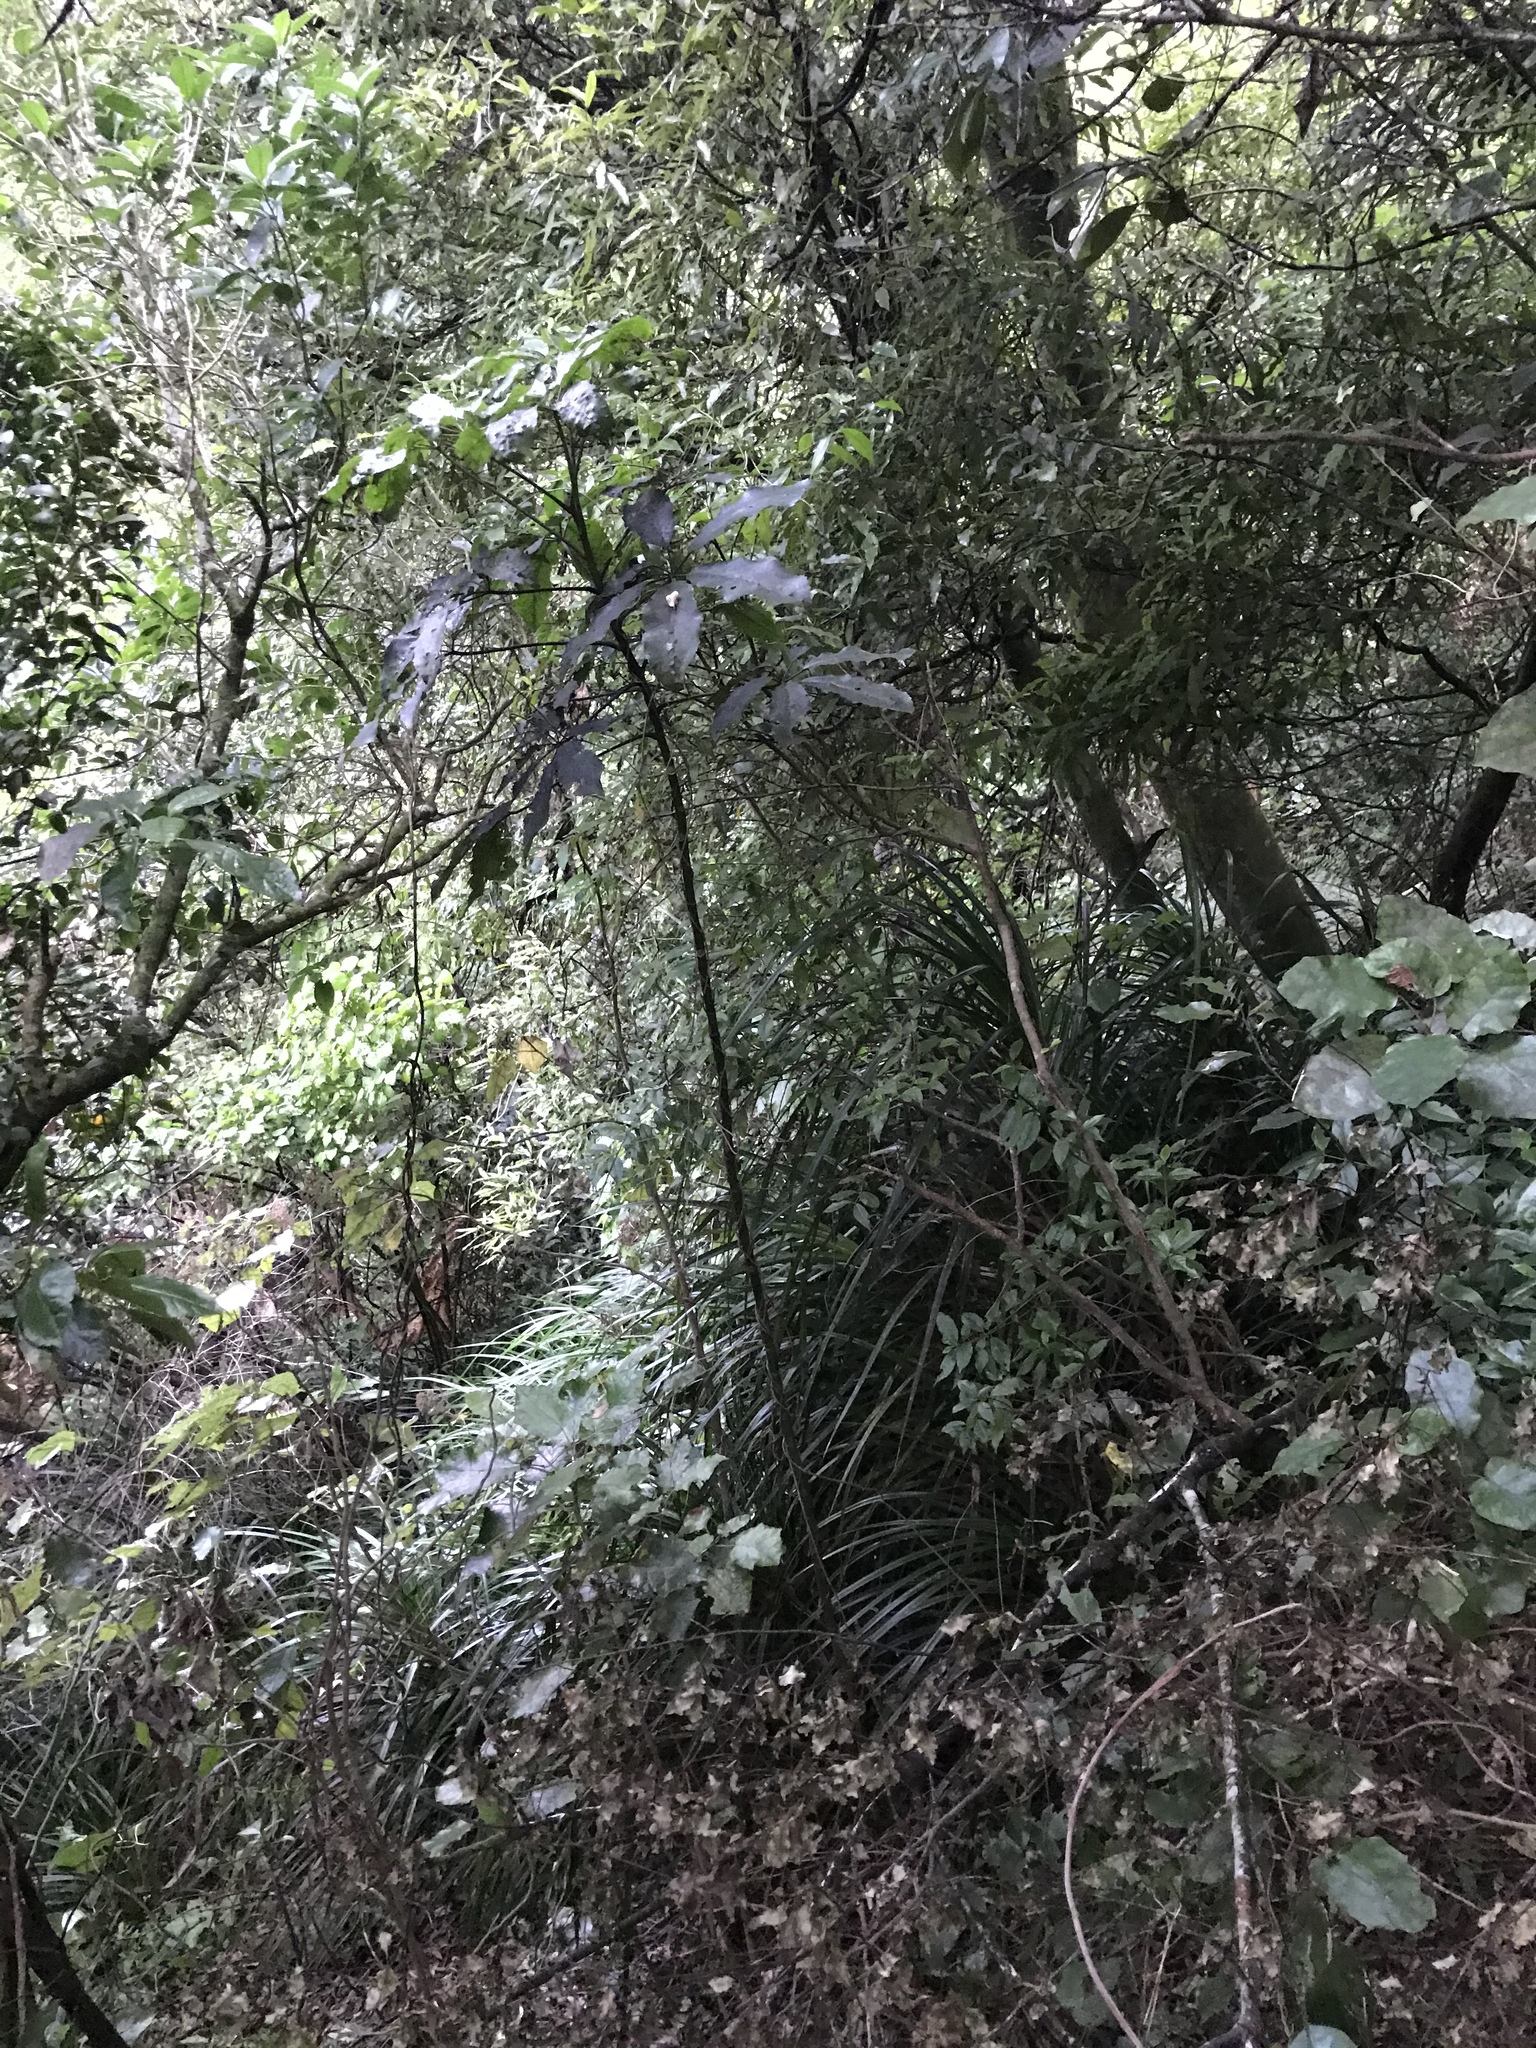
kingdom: Plantae
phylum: Tracheophyta
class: Liliopsida
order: Pandanales
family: Pandanaceae
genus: Freycinetia
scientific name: Freycinetia banksii
